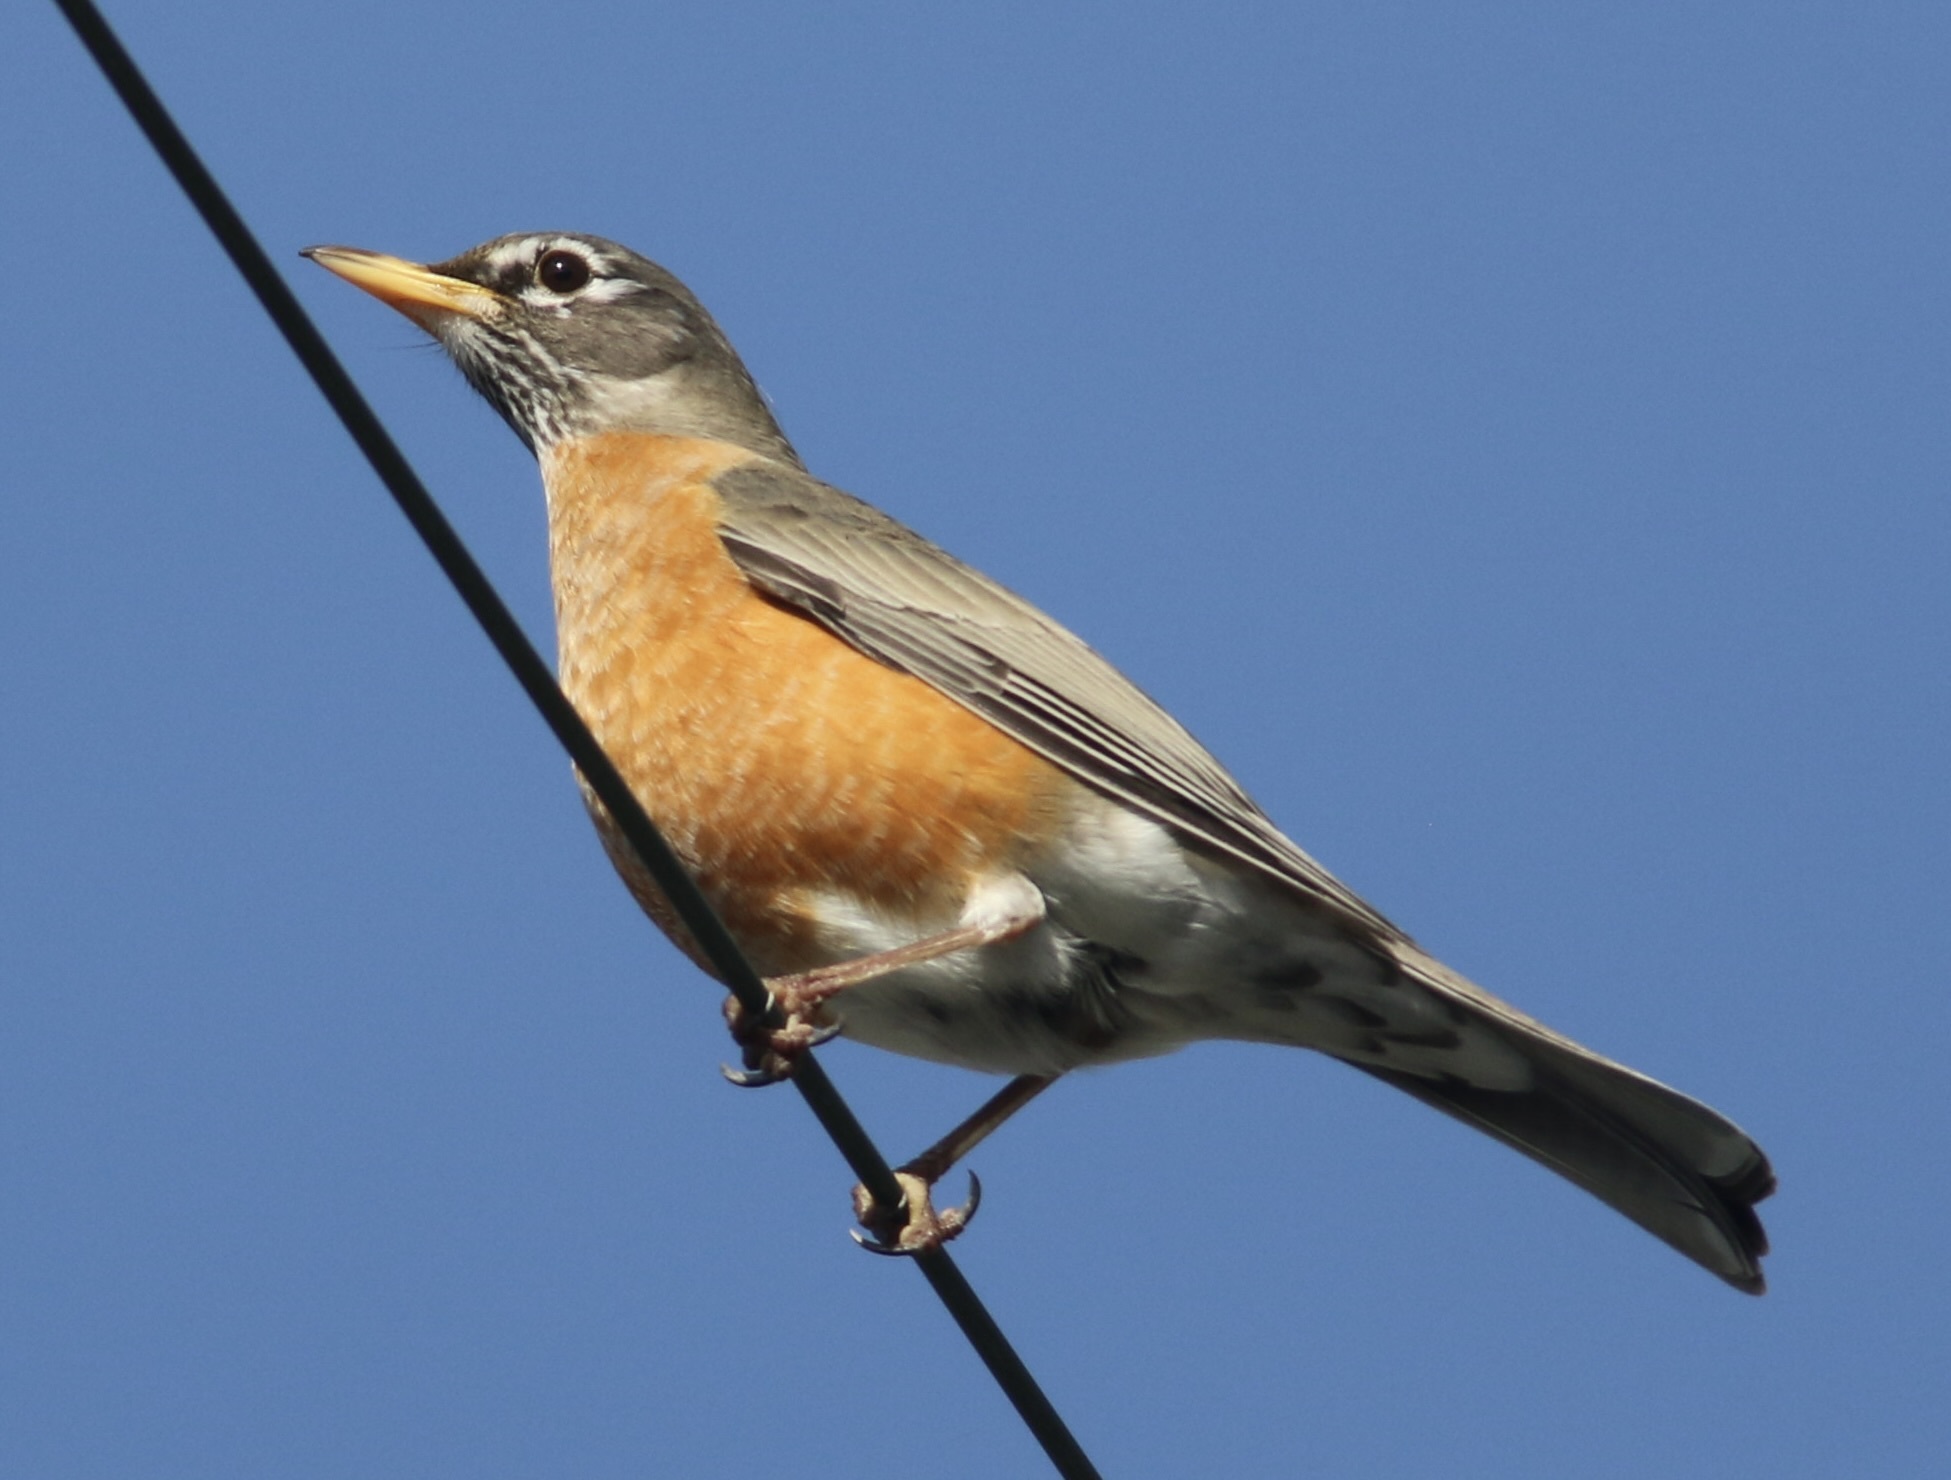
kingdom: Animalia
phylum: Chordata
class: Aves
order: Passeriformes
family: Turdidae
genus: Turdus
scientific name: Turdus migratorius
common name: American robin
